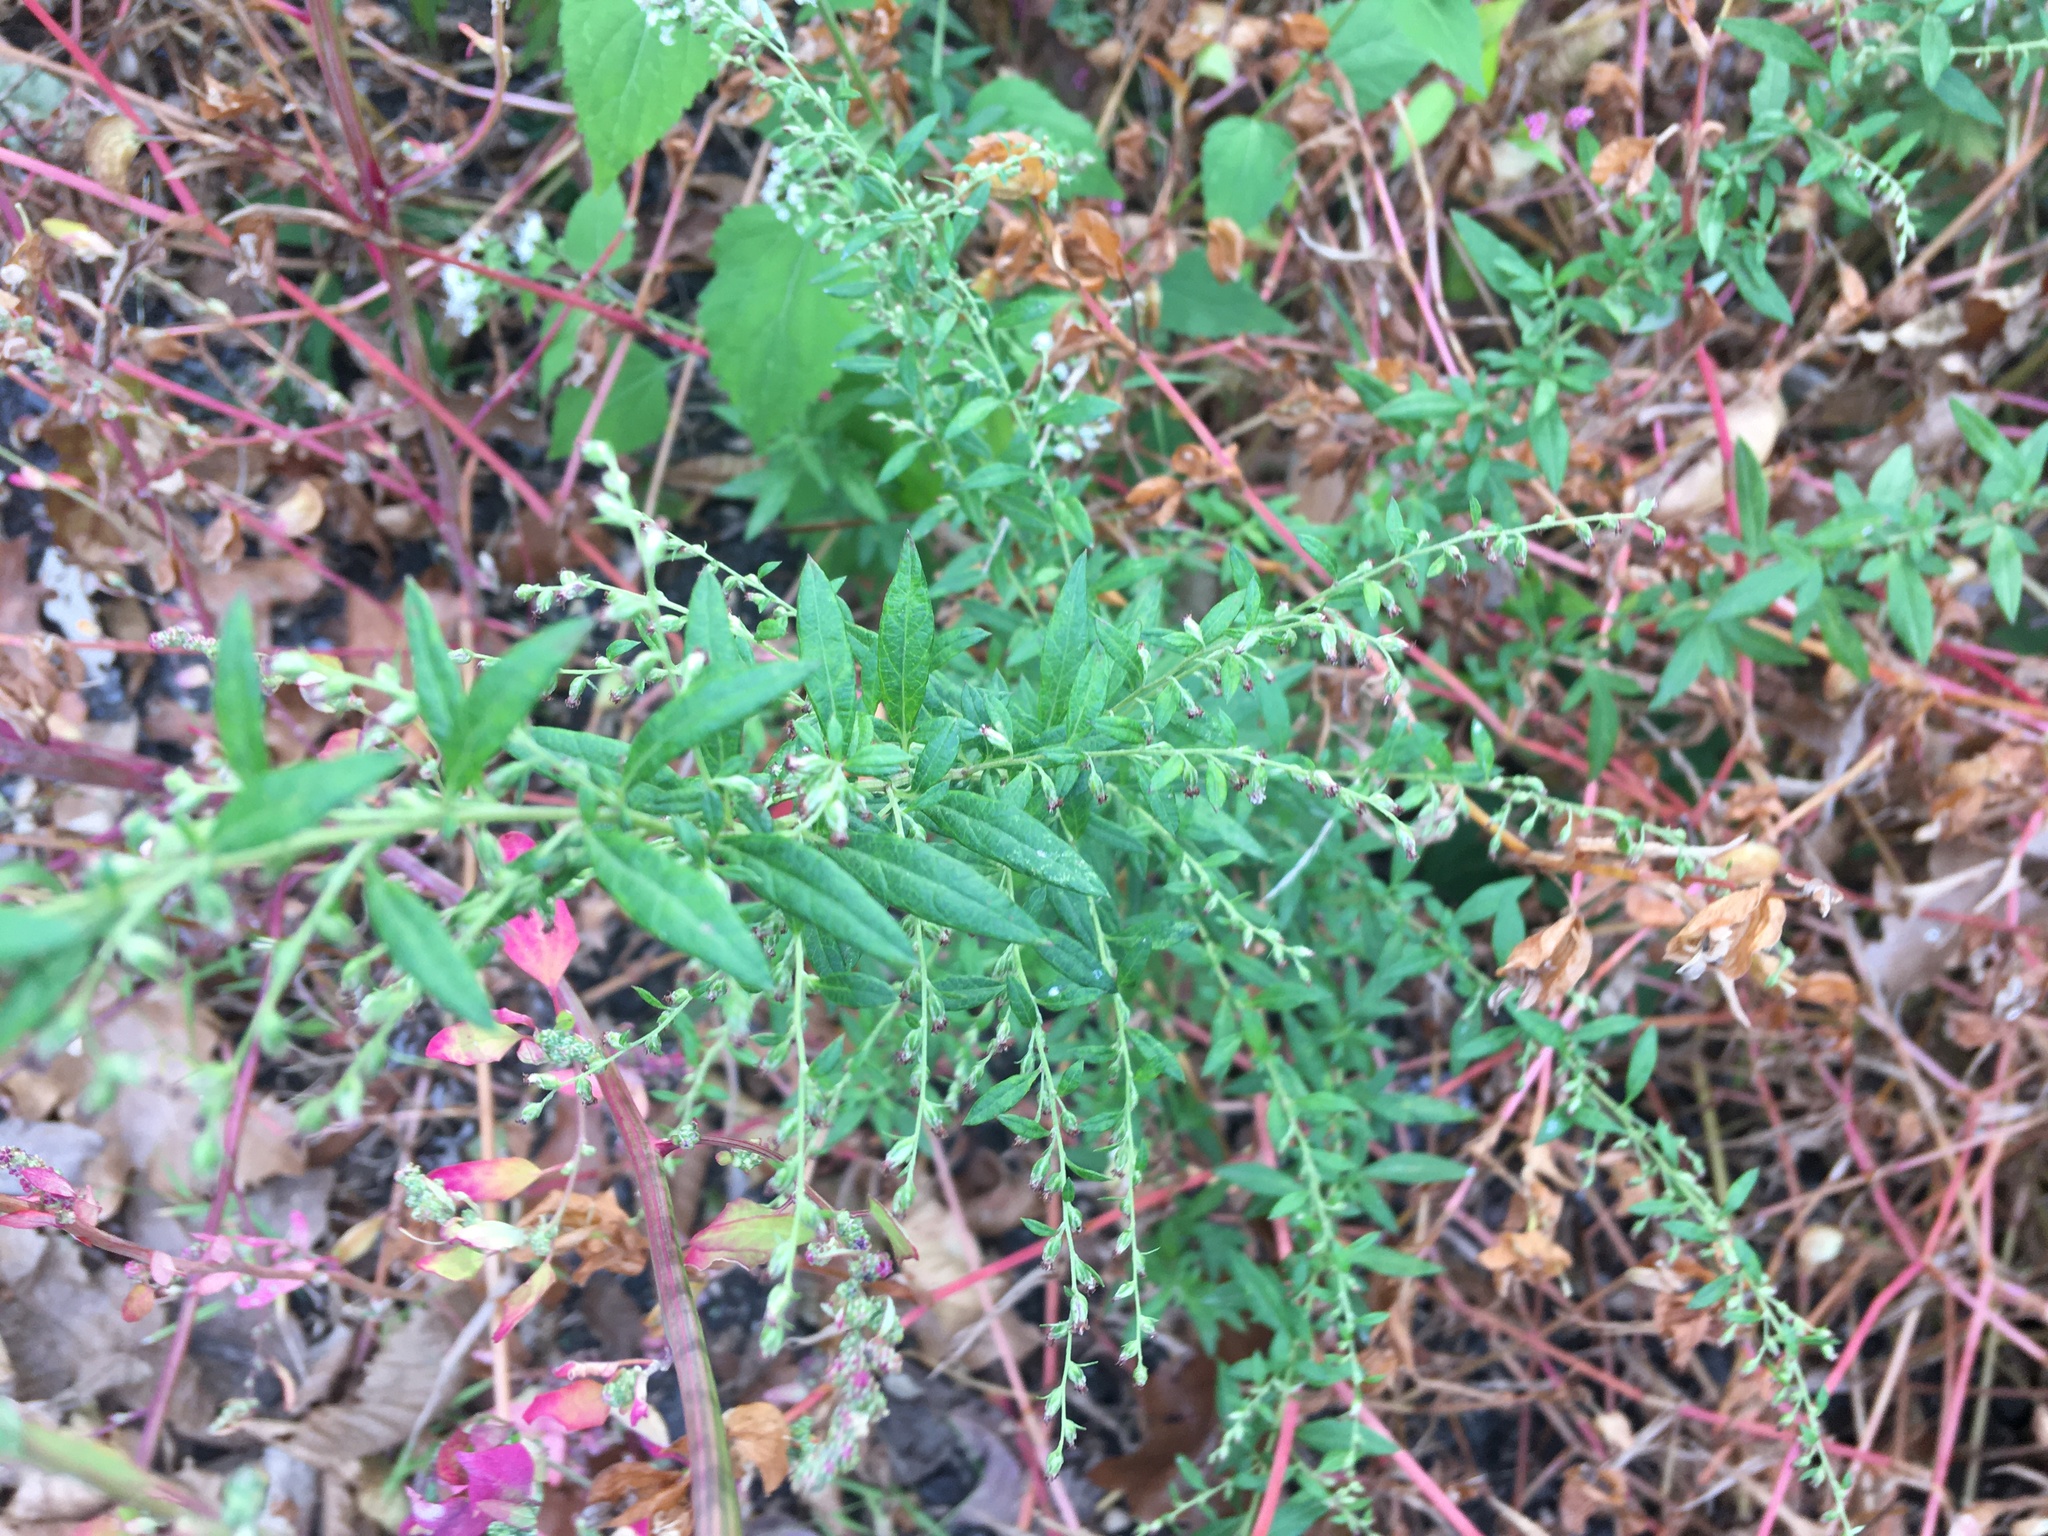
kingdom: Plantae
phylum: Tracheophyta
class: Magnoliopsida
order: Asterales
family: Asteraceae
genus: Artemisia
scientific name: Artemisia vulgaris
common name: Mugwort
